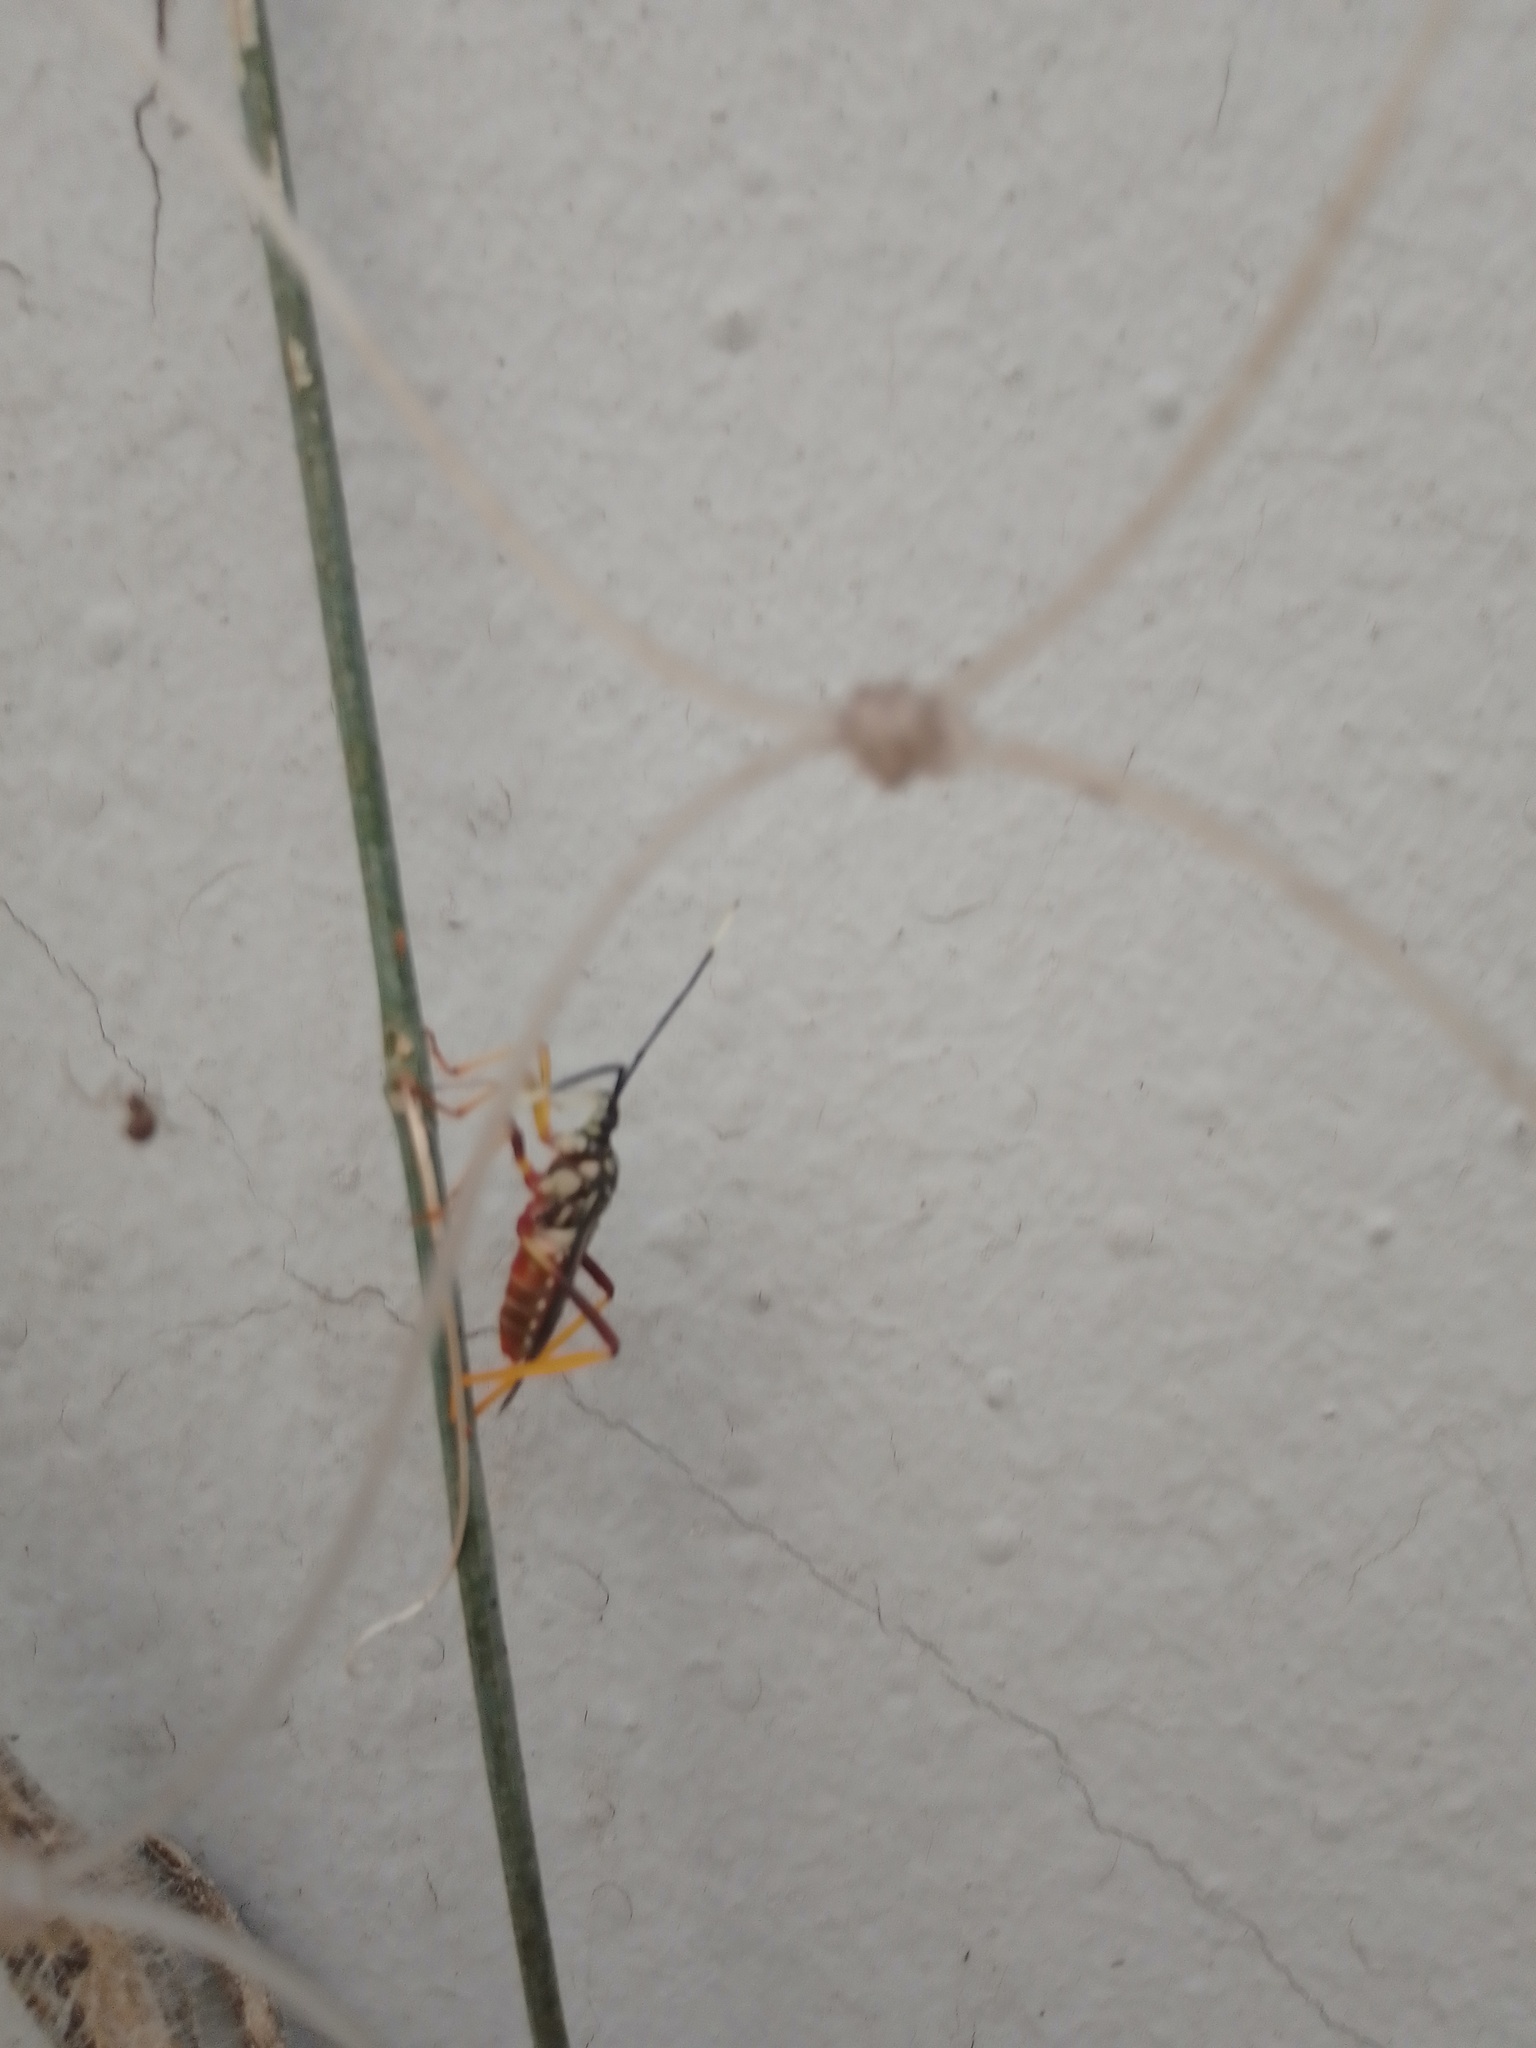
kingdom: Animalia
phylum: Arthropoda
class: Insecta
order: Hemiptera
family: Coreidae
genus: Holhymenia
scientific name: Holhymenia histrio
